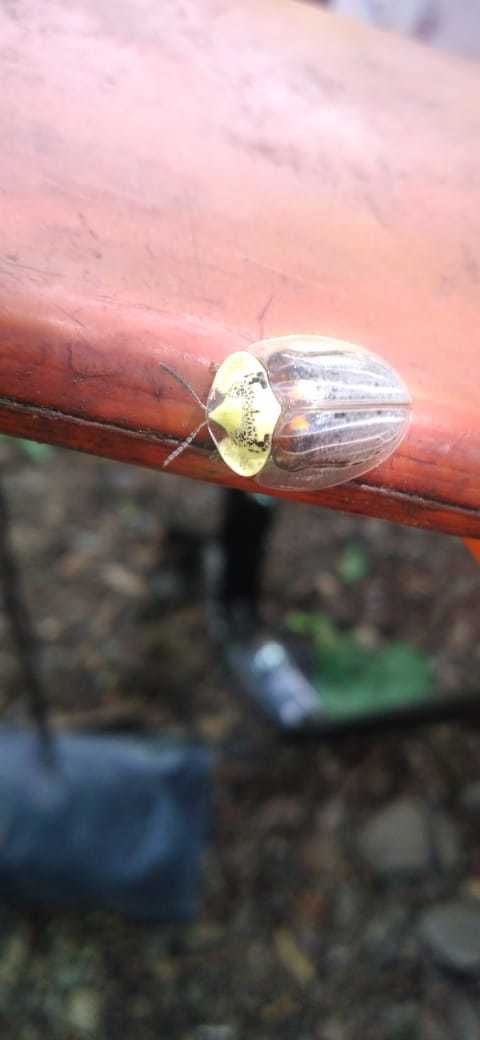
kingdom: Animalia
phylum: Arthropoda
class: Insecta
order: Coleoptera
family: Chrysomelidae
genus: Physonota
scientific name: Physonota alutacea
